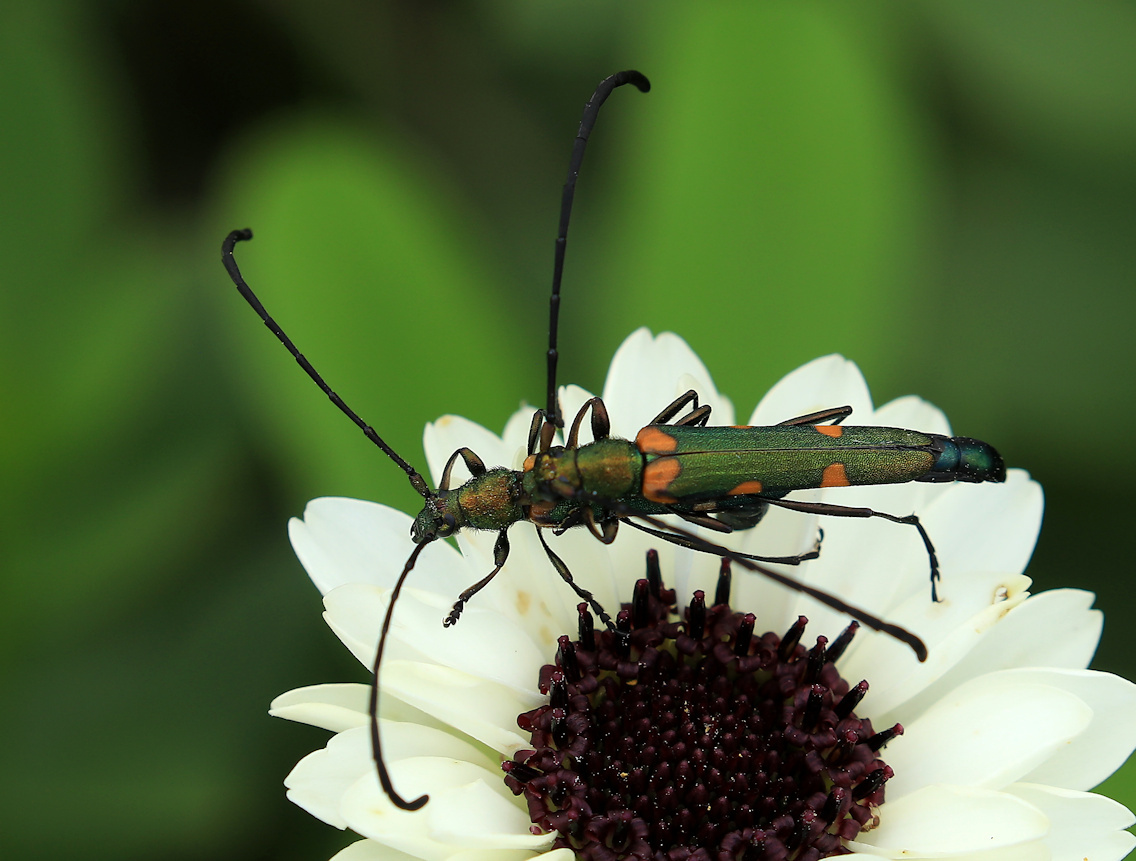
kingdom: Animalia
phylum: Arthropoda
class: Insecta
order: Coleoptera
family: Cerambycidae
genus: Anubis
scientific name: Anubis clavicornis
